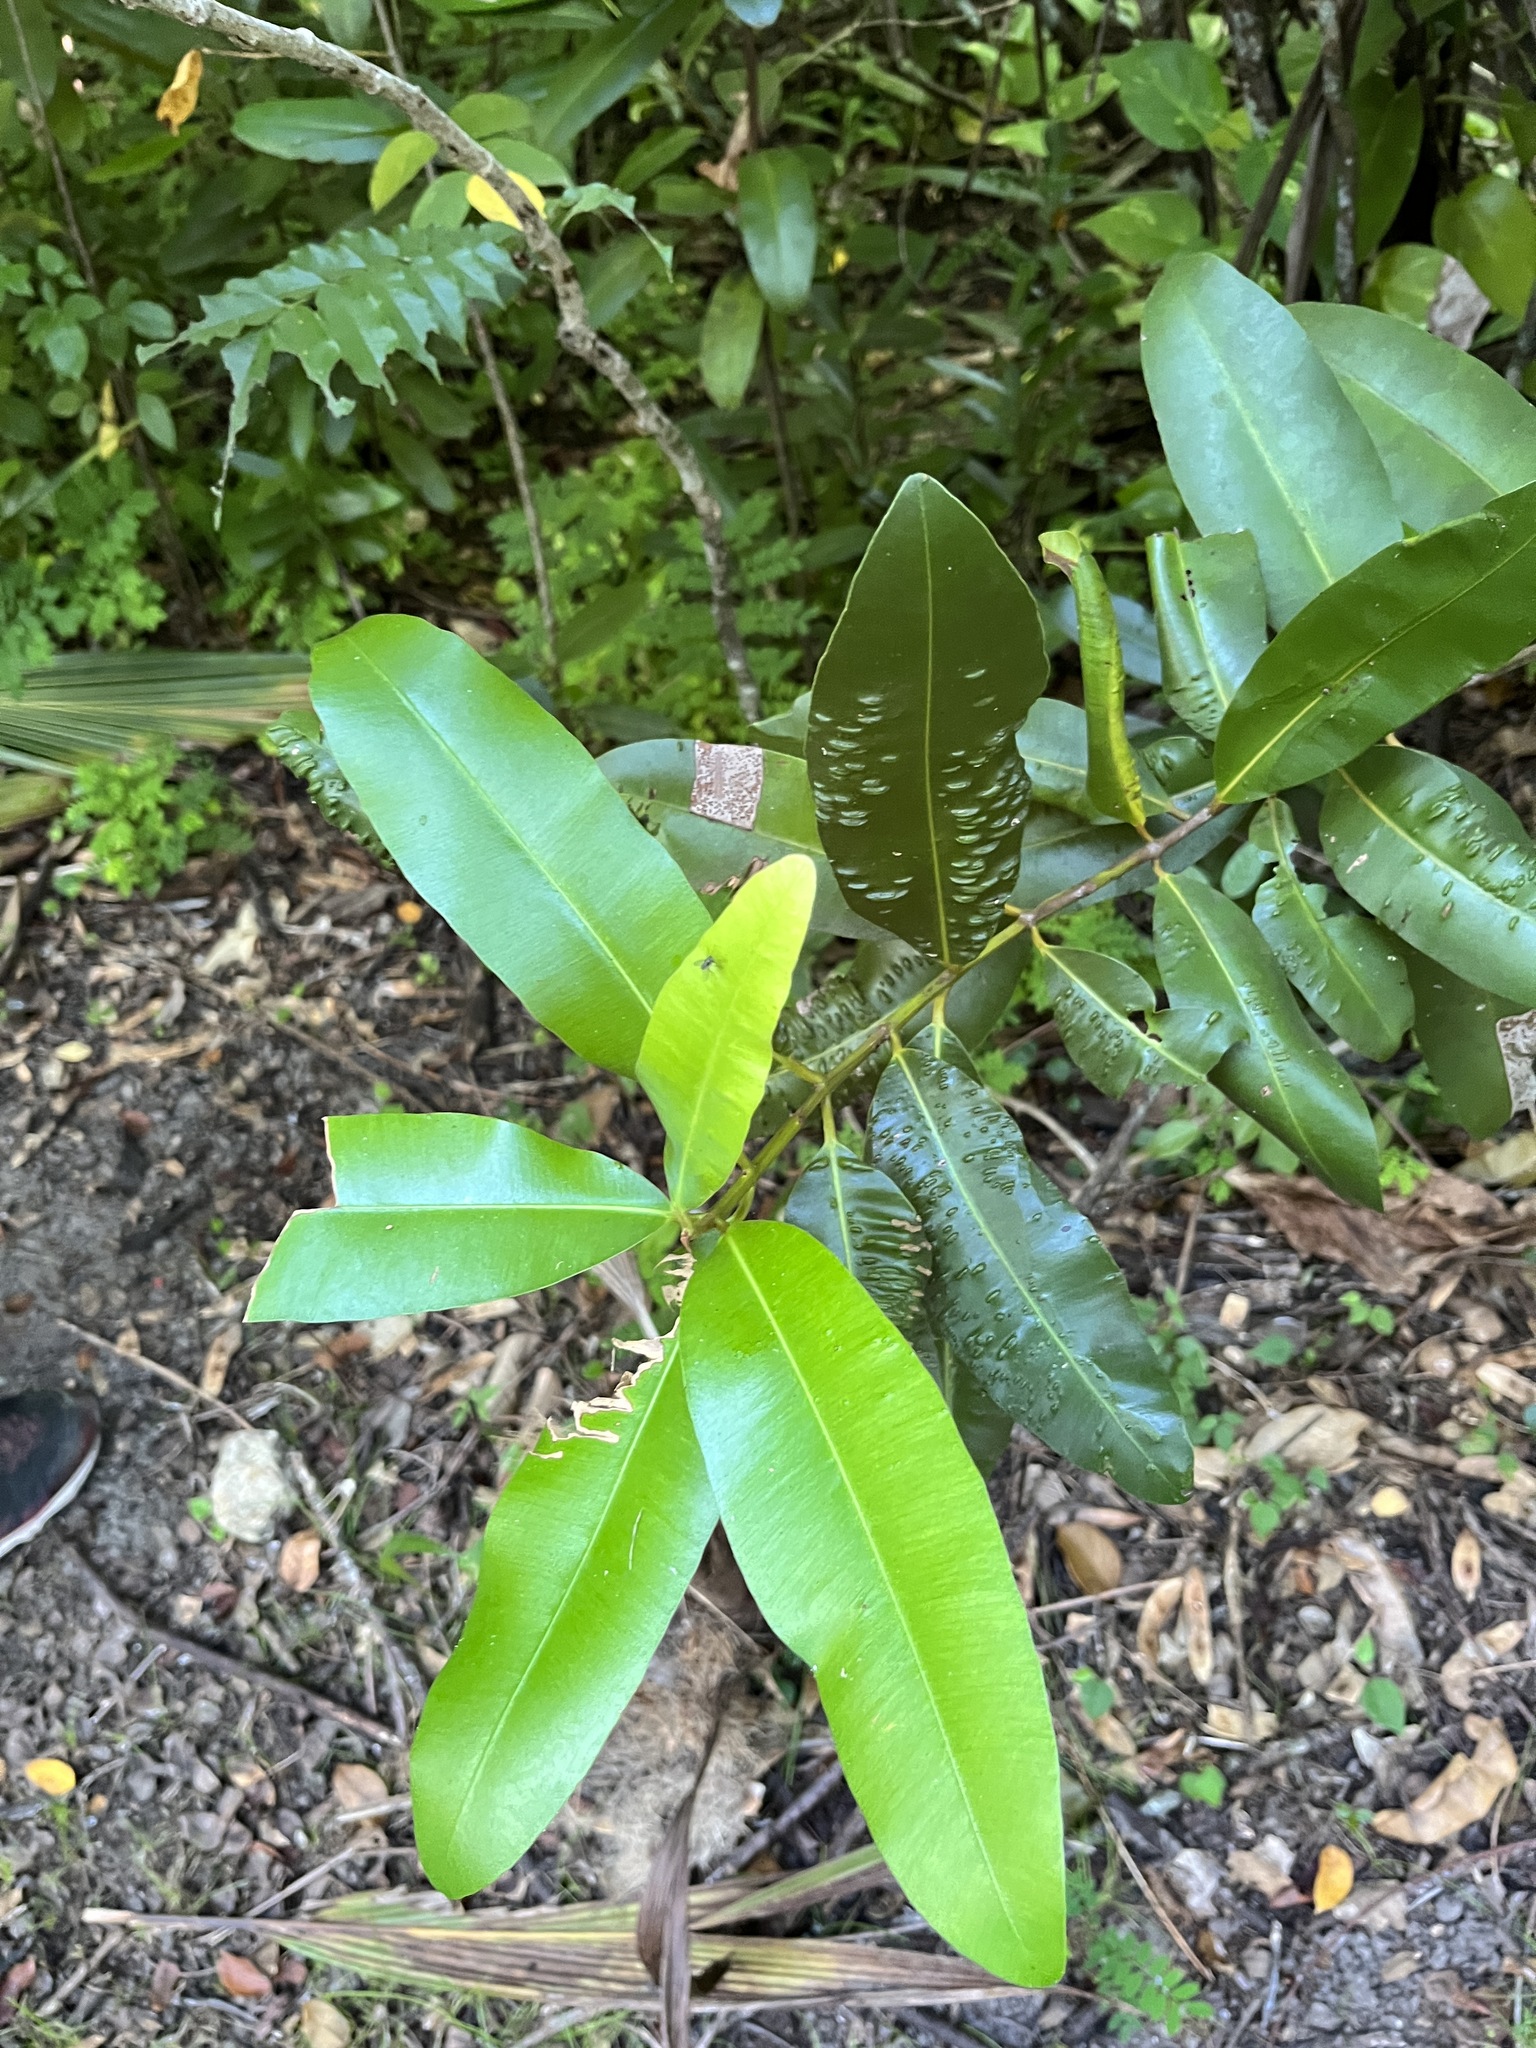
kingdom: Plantae
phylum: Tracheophyta
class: Magnoliopsida
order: Malpighiales
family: Calophyllaceae
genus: Calophyllum
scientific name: Calophyllum antillanum
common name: Santa maria-tree
